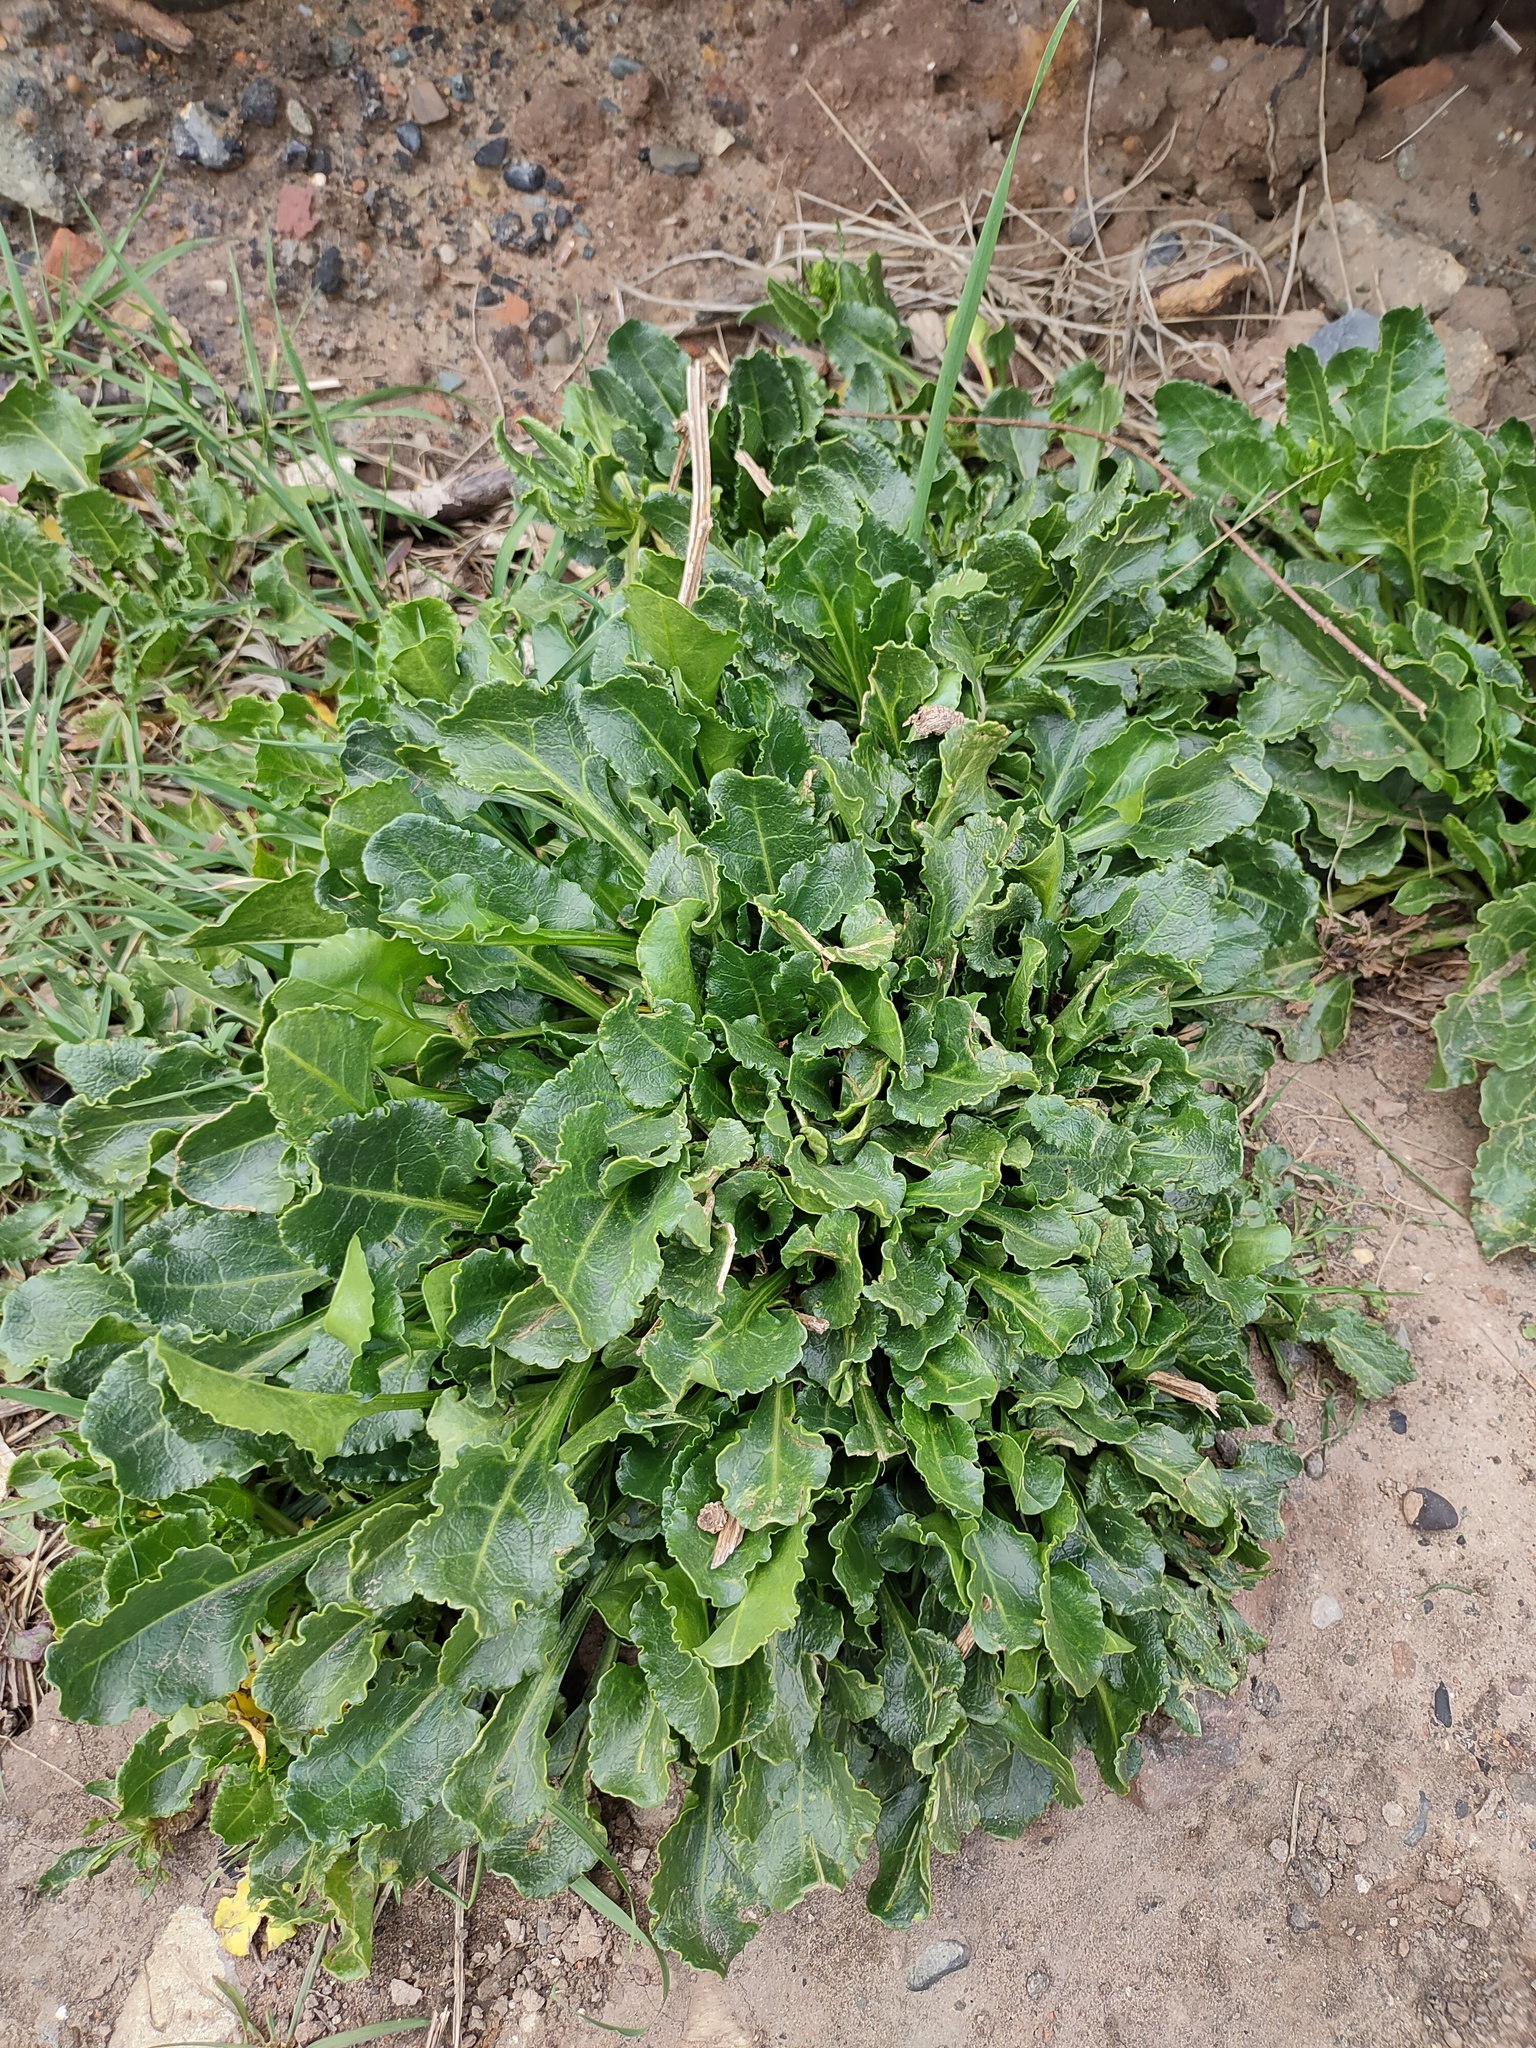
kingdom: Plantae
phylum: Tracheophyta
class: Magnoliopsida
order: Caryophyllales
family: Amaranthaceae
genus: Beta
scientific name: Beta vulgaris
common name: Beet
